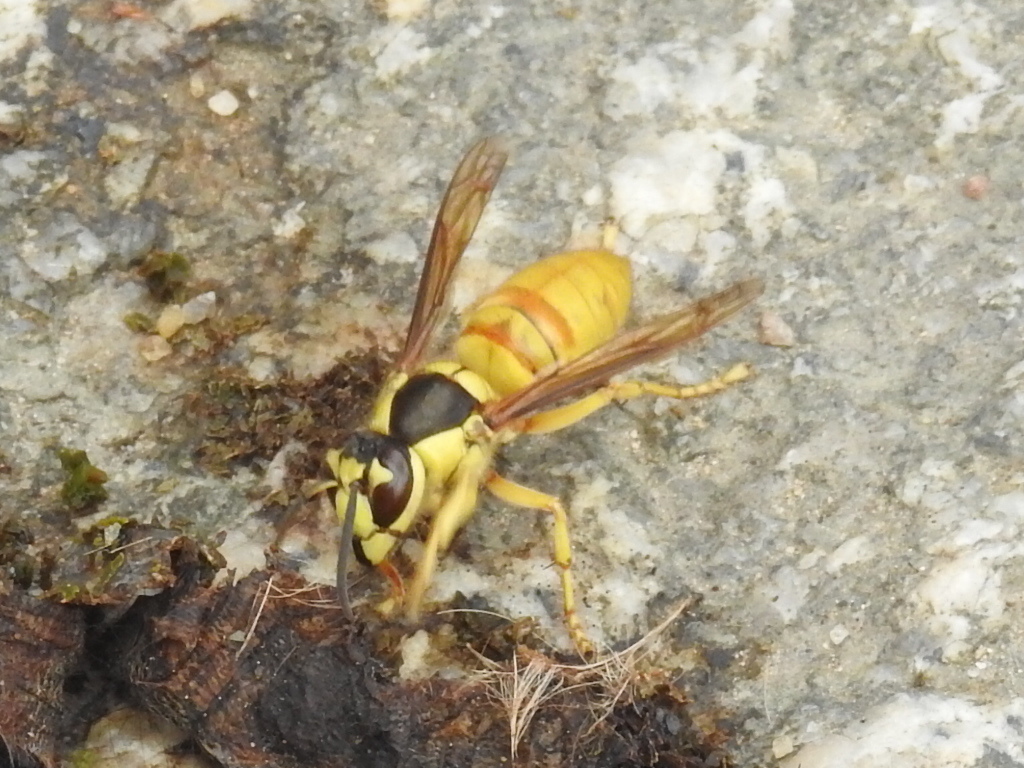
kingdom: Animalia
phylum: Arthropoda
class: Insecta
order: Hymenoptera
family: Vespidae
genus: Vespa
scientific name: Vespa bicolor
